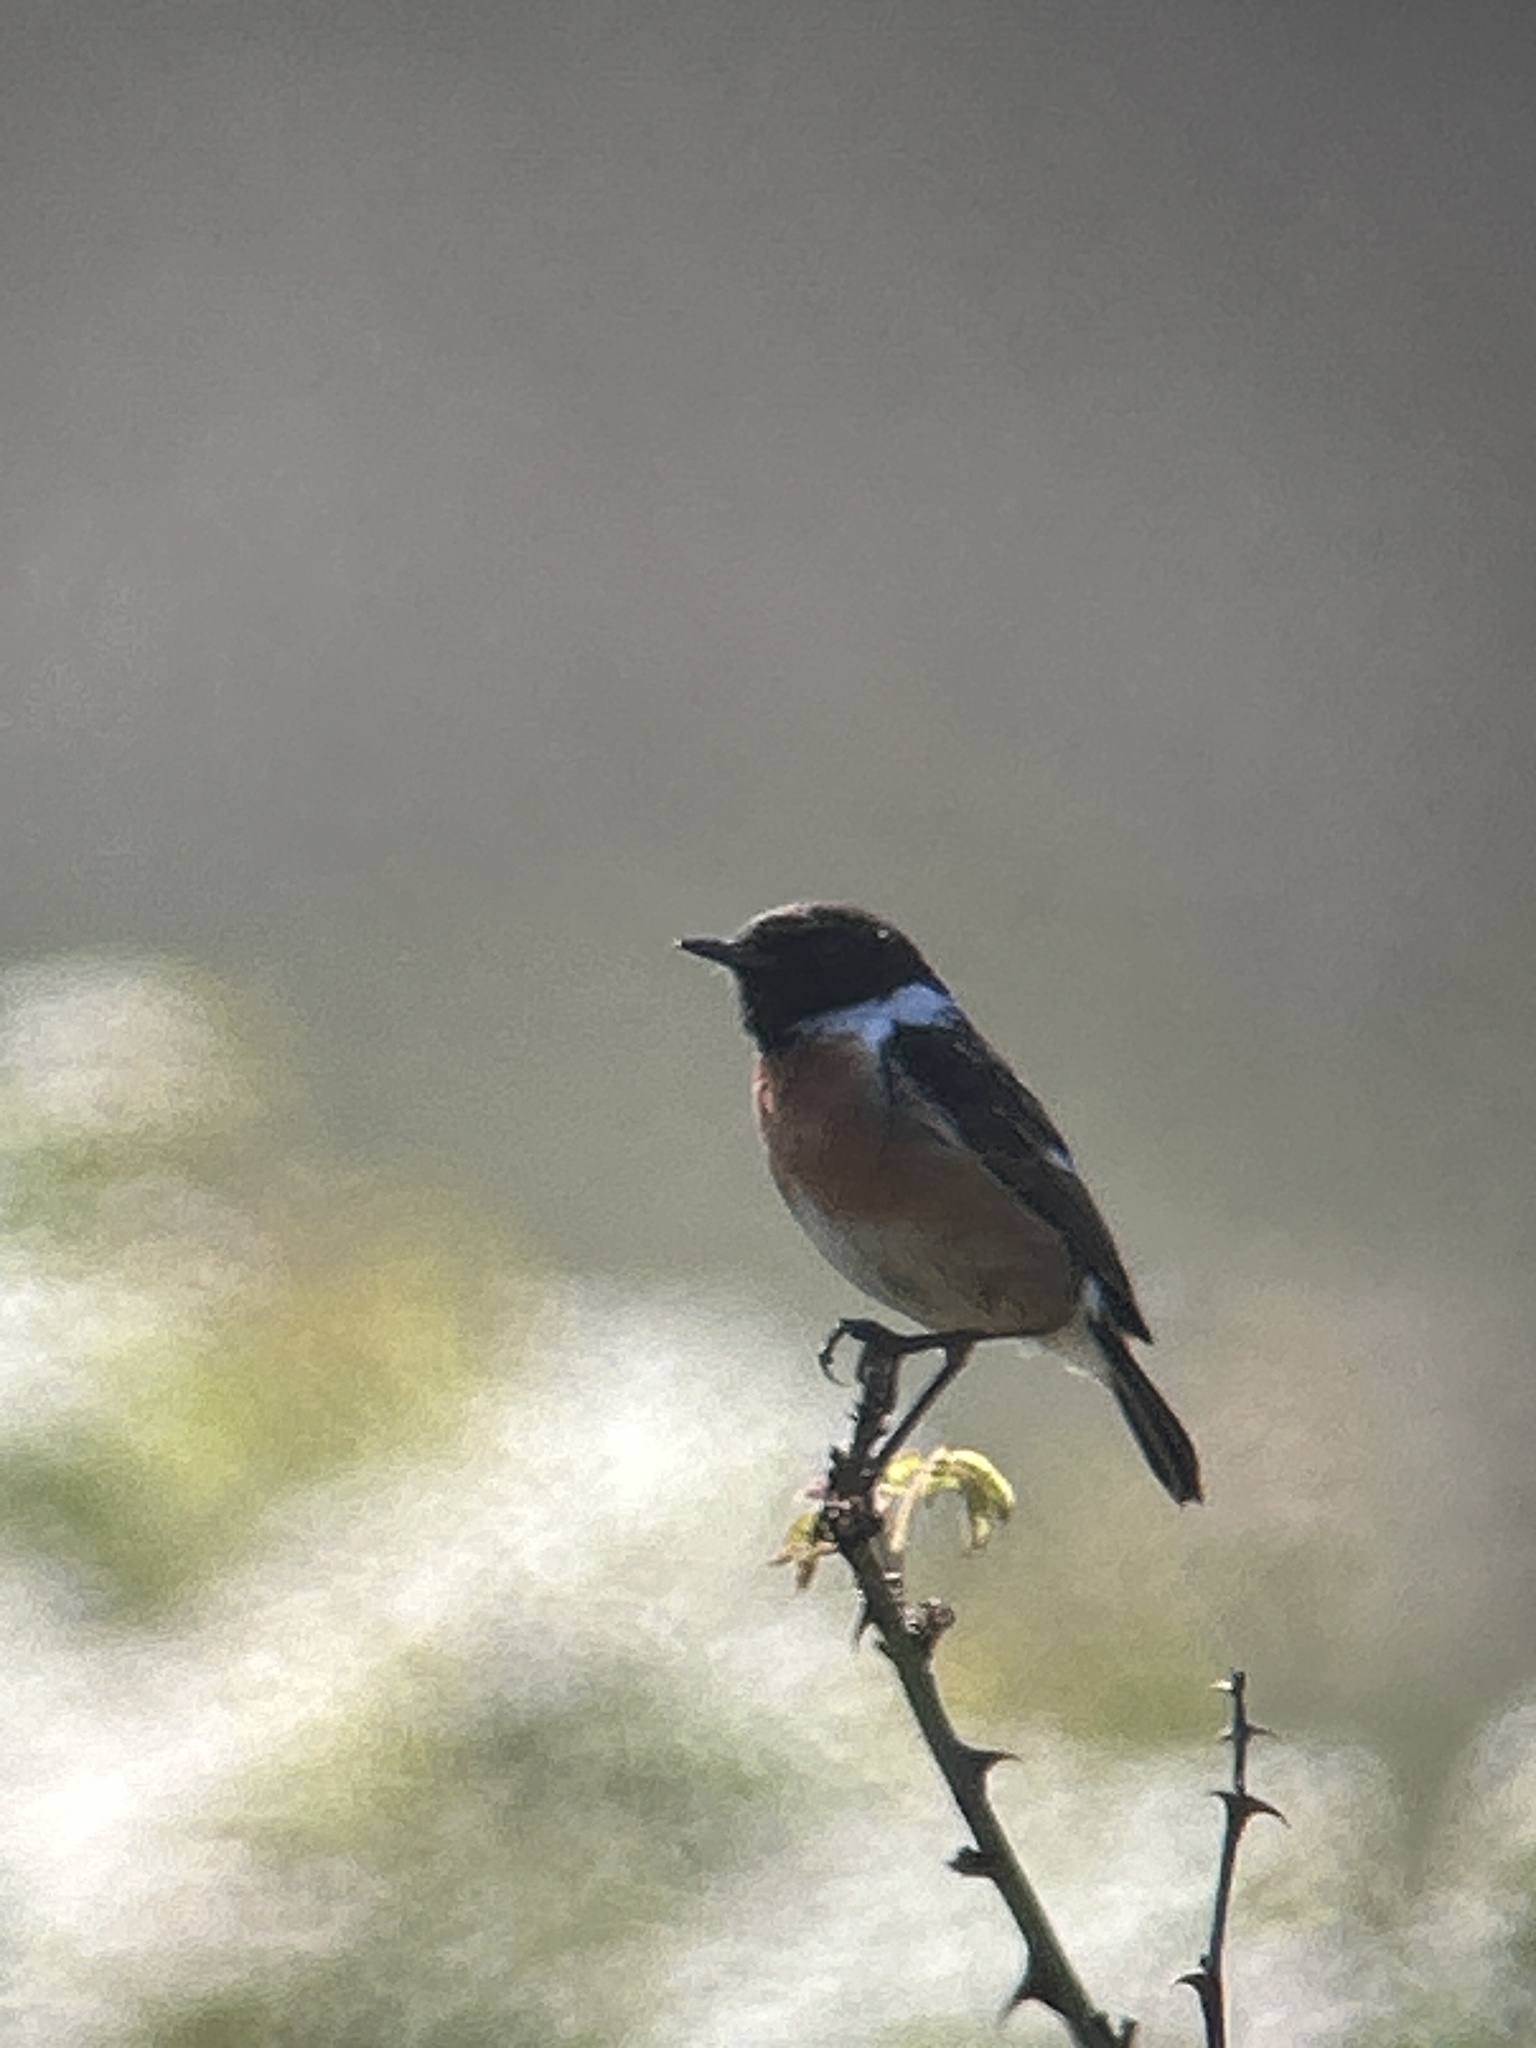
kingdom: Animalia
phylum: Chordata
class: Aves
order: Passeriformes
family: Muscicapidae
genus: Saxicola
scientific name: Saxicola rubicola
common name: European stonechat
